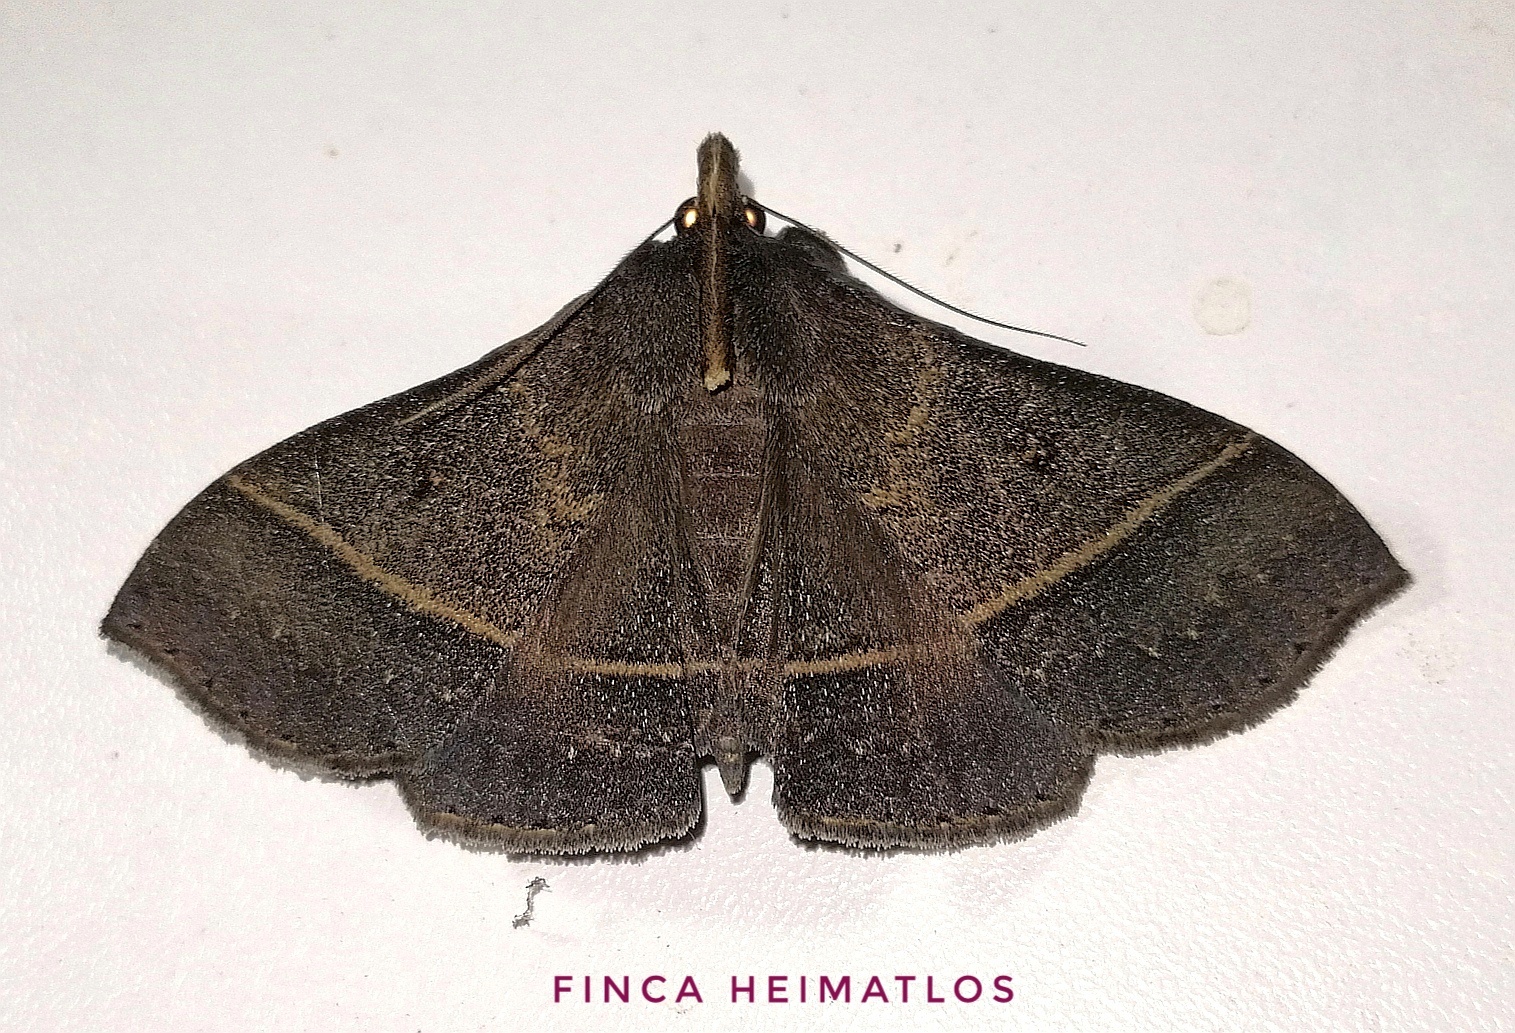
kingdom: Animalia
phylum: Arthropoda
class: Insecta
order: Lepidoptera
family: Erebidae
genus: Rejectaria
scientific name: Rejectaria villosa
